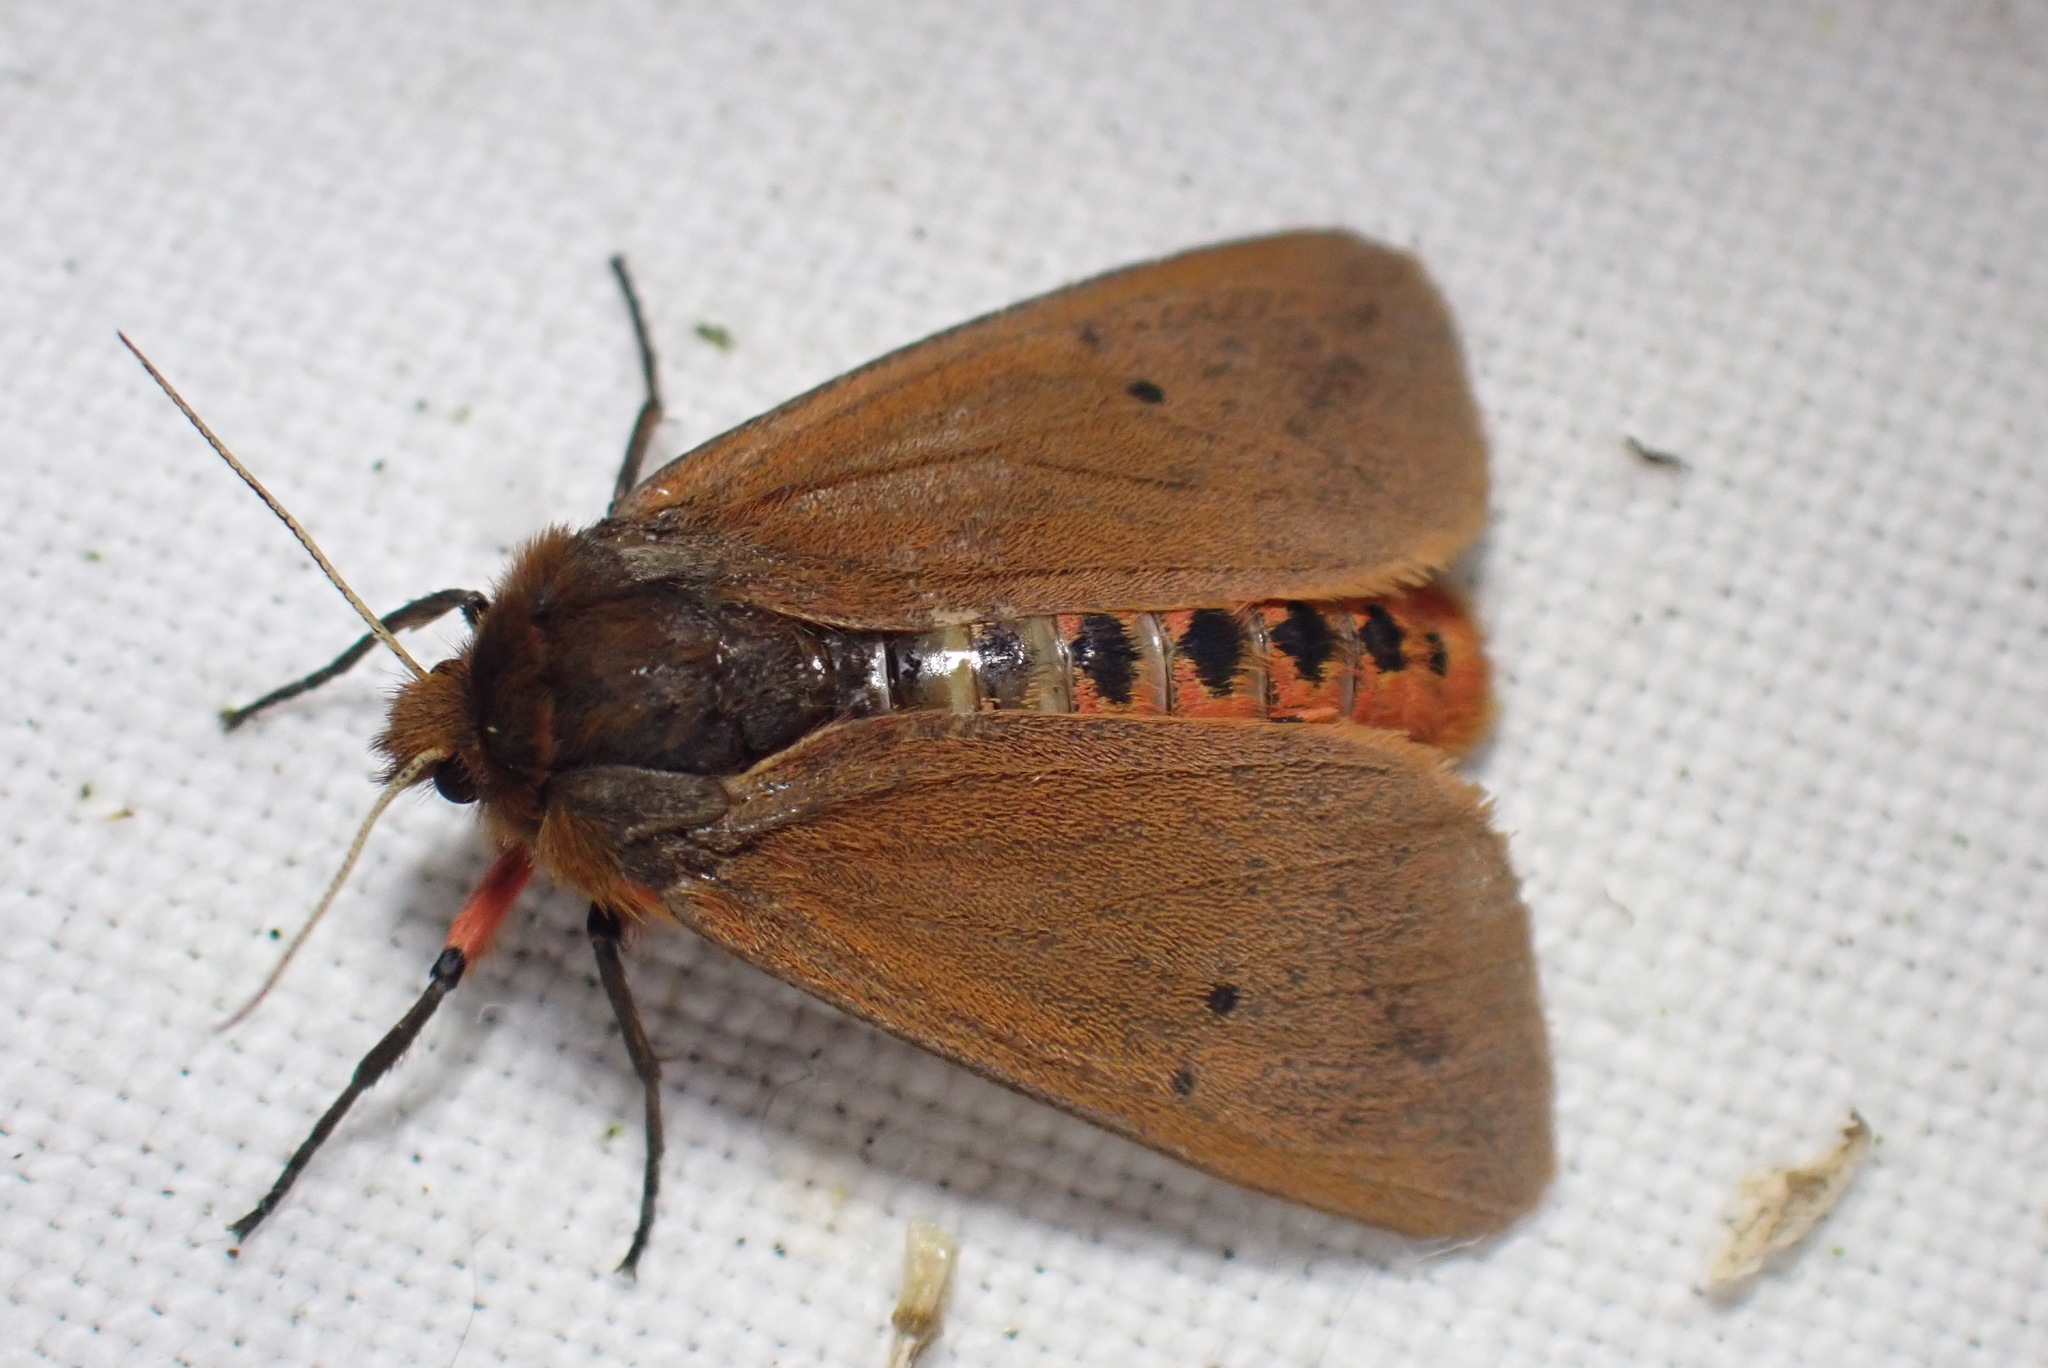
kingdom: Animalia
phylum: Arthropoda
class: Insecta
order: Lepidoptera
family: Erebidae
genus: Phragmatobia
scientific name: Phragmatobia fuliginosa
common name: Ruby tiger
